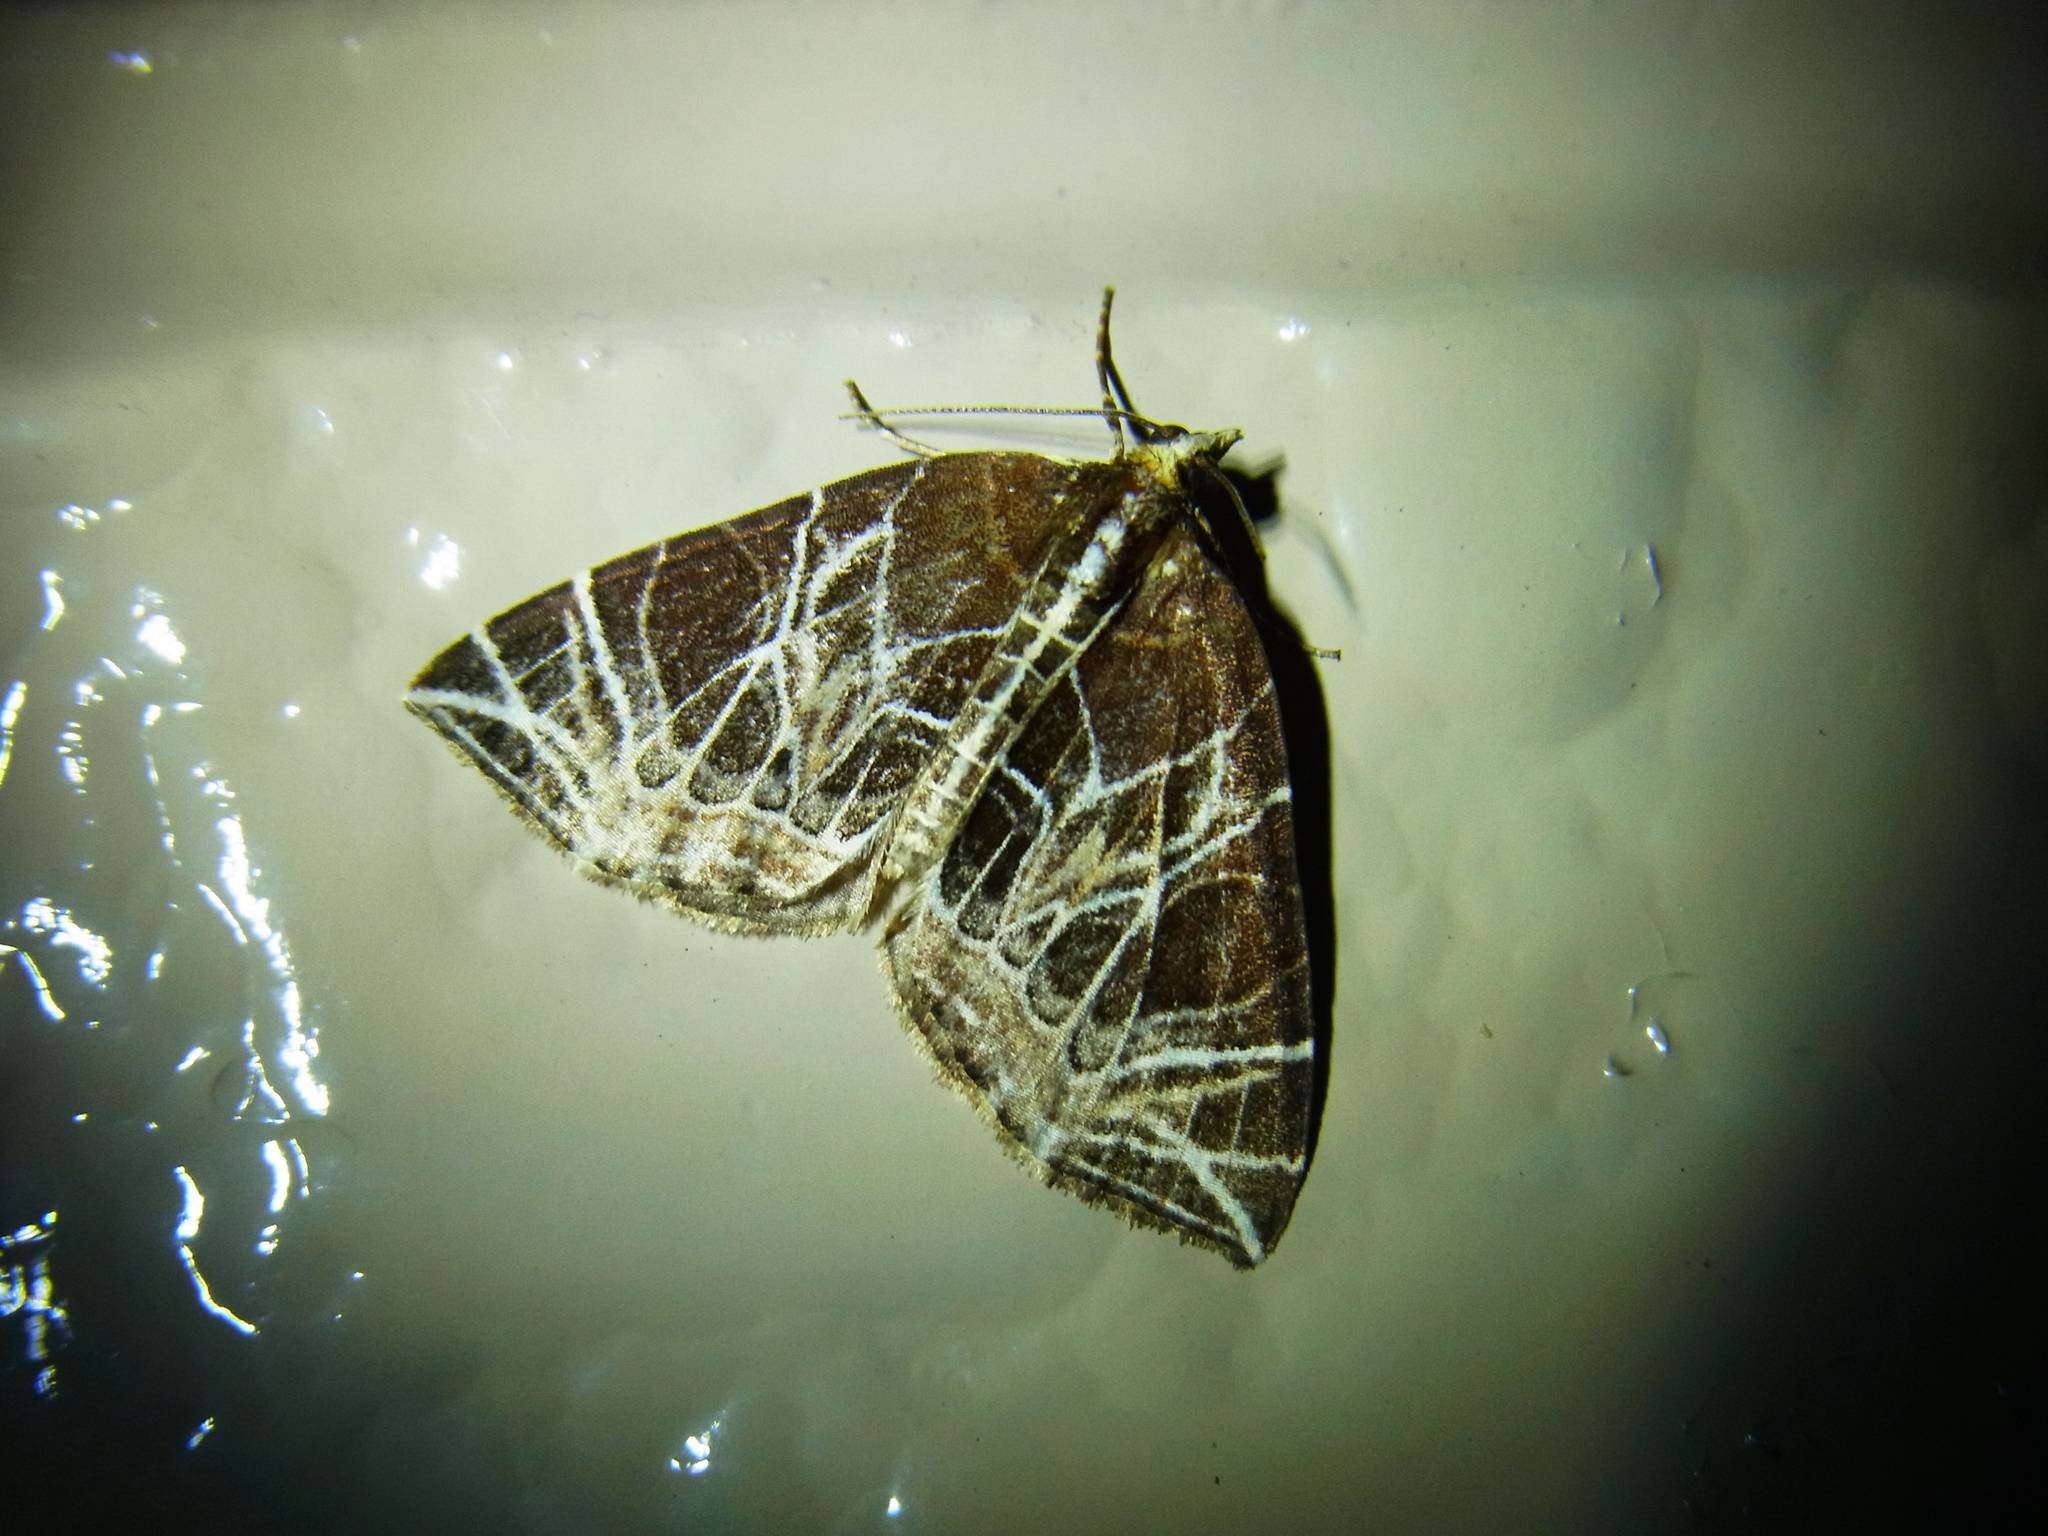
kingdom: Animalia
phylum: Arthropoda
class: Insecta
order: Lepidoptera
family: Geometridae
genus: Evecliptopera
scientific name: Evecliptopera illitata
